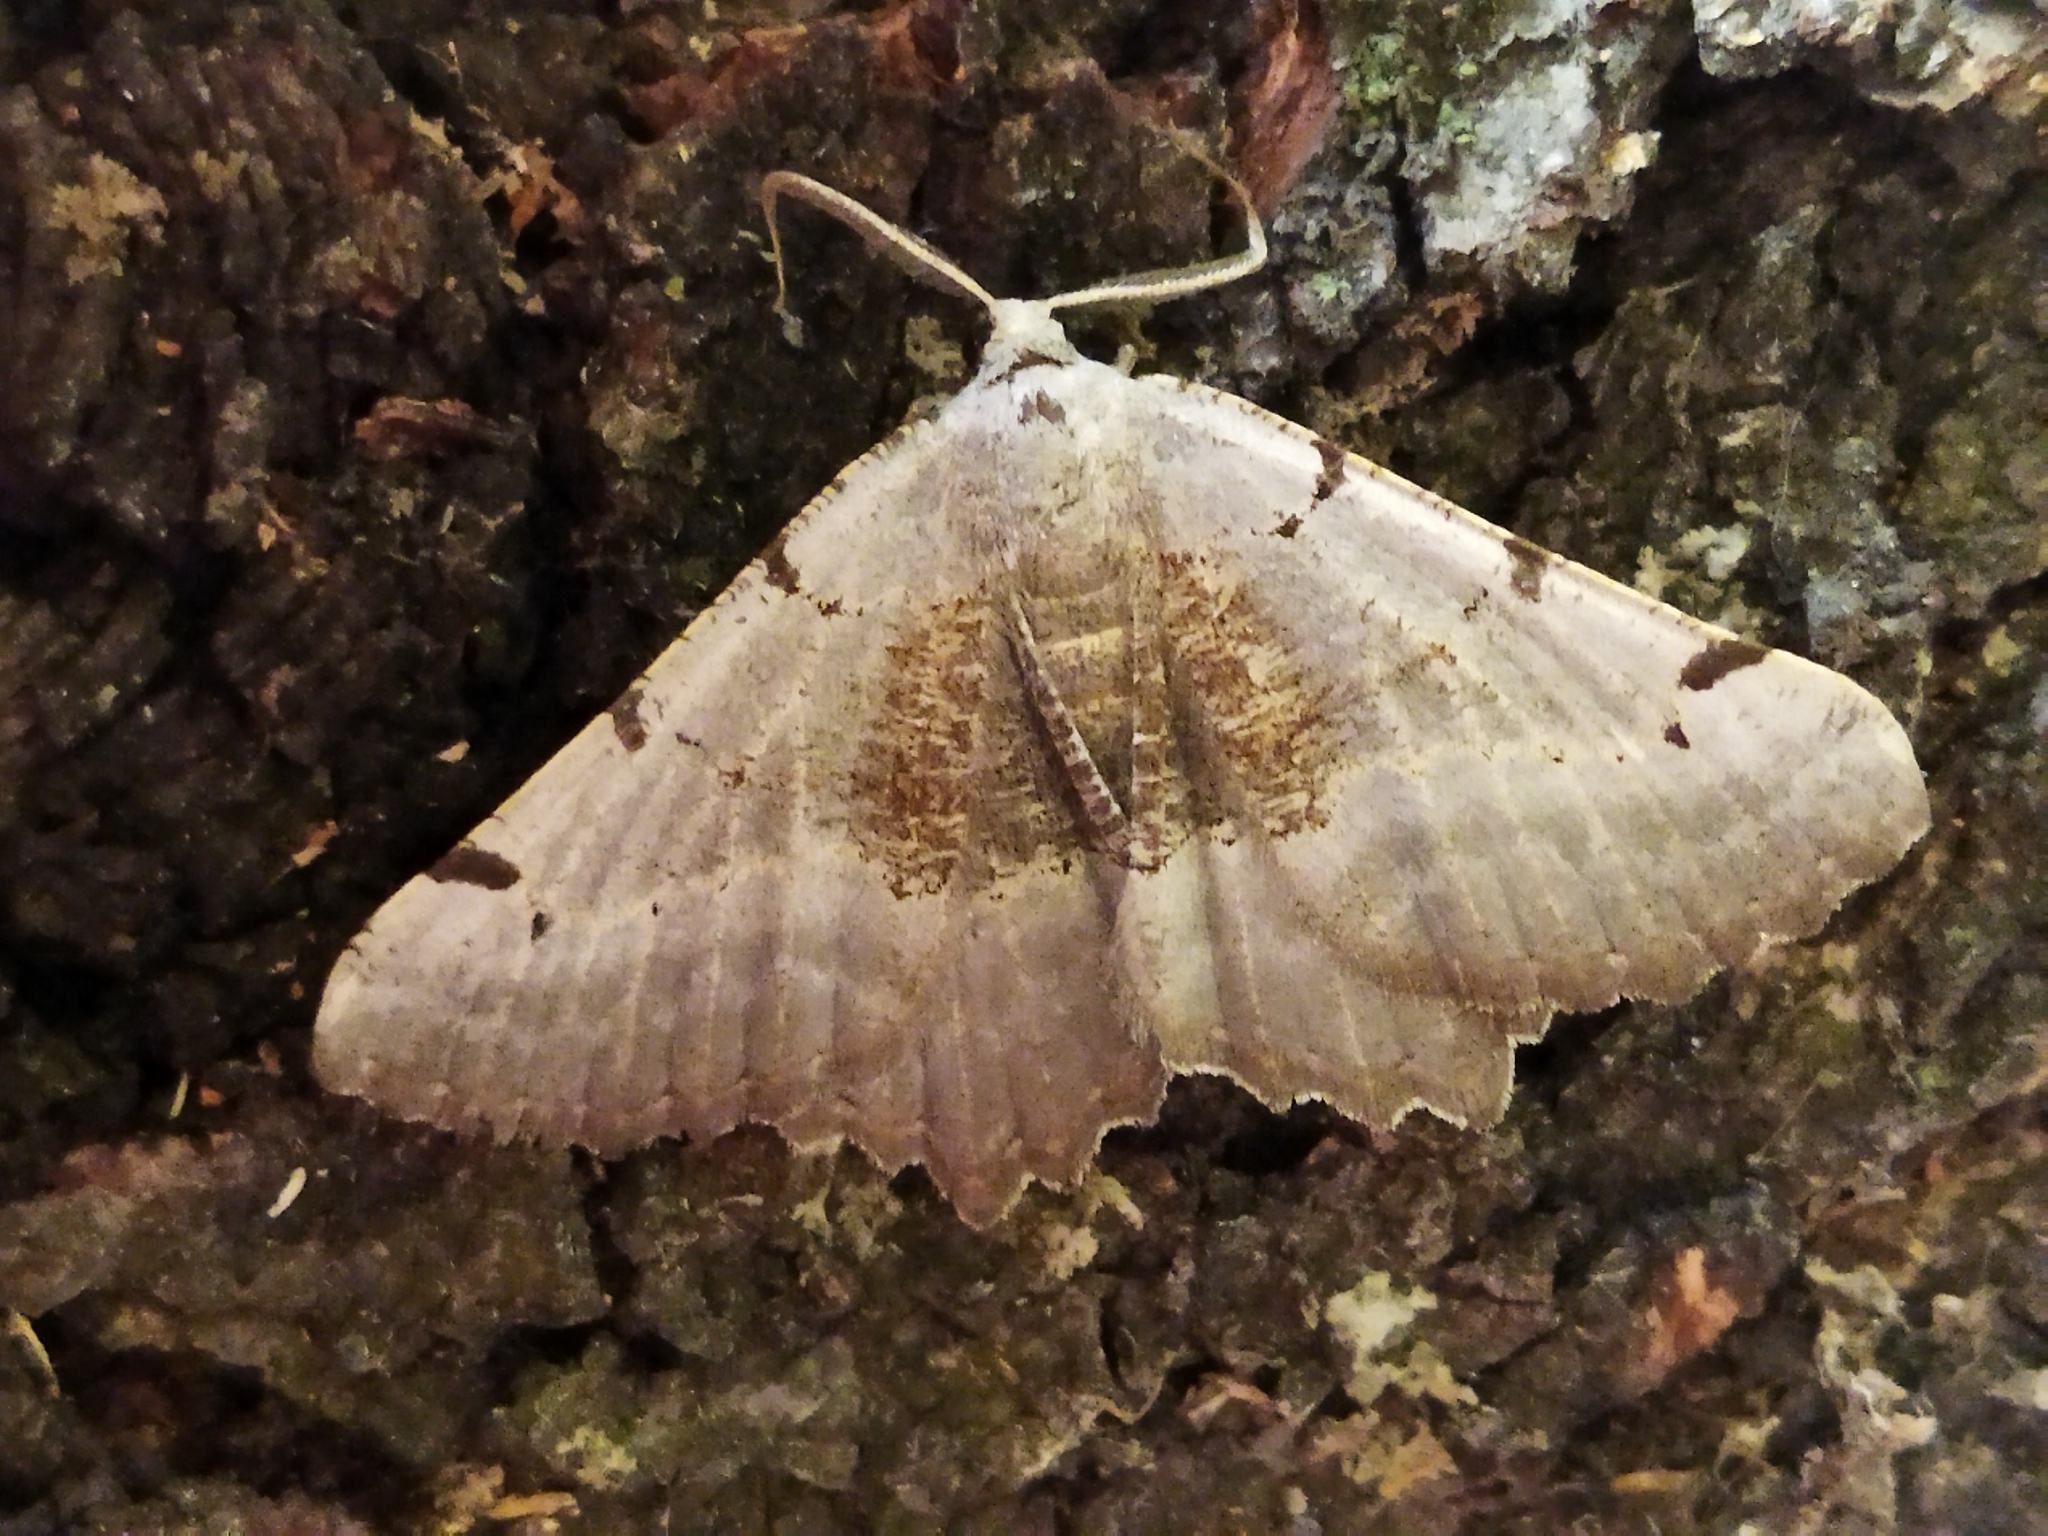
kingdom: Animalia
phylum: Arthropoda
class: Insecta
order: Lepidoptera
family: Geometridae
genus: Neognopharmia
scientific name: Neognopharmia stevenaria
